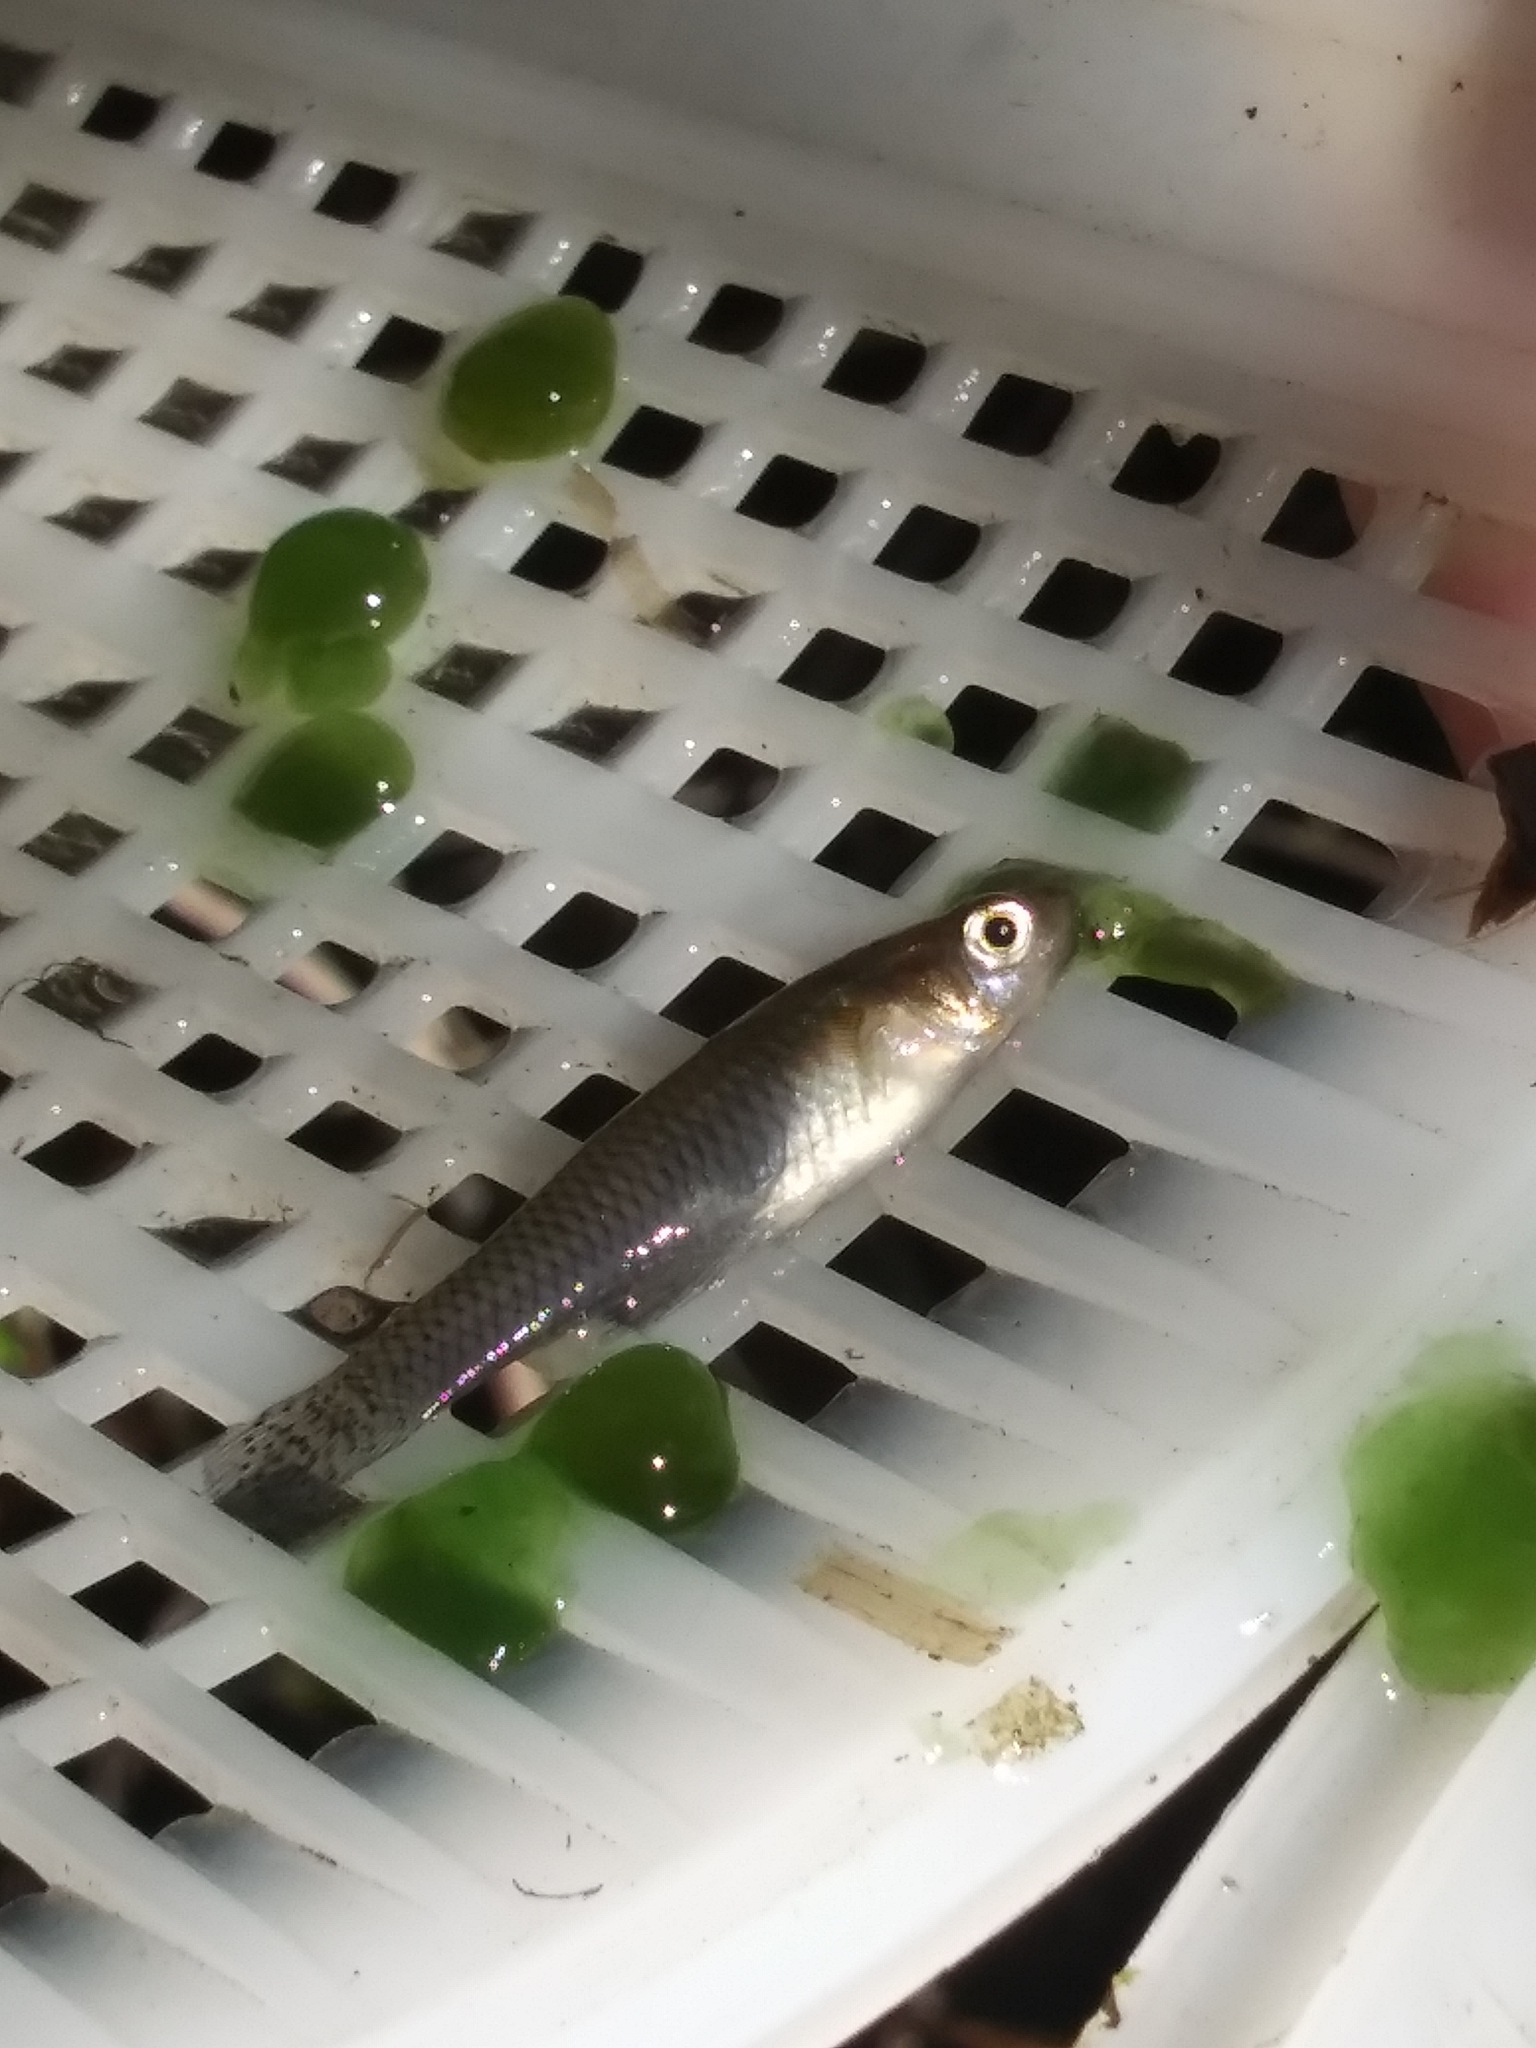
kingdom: Animalia
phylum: Chordata
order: Cyprinodontiformes
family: Poeciliidae
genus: Gambusia
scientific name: Gambusia holbrooki
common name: Eastern mosquitofish
